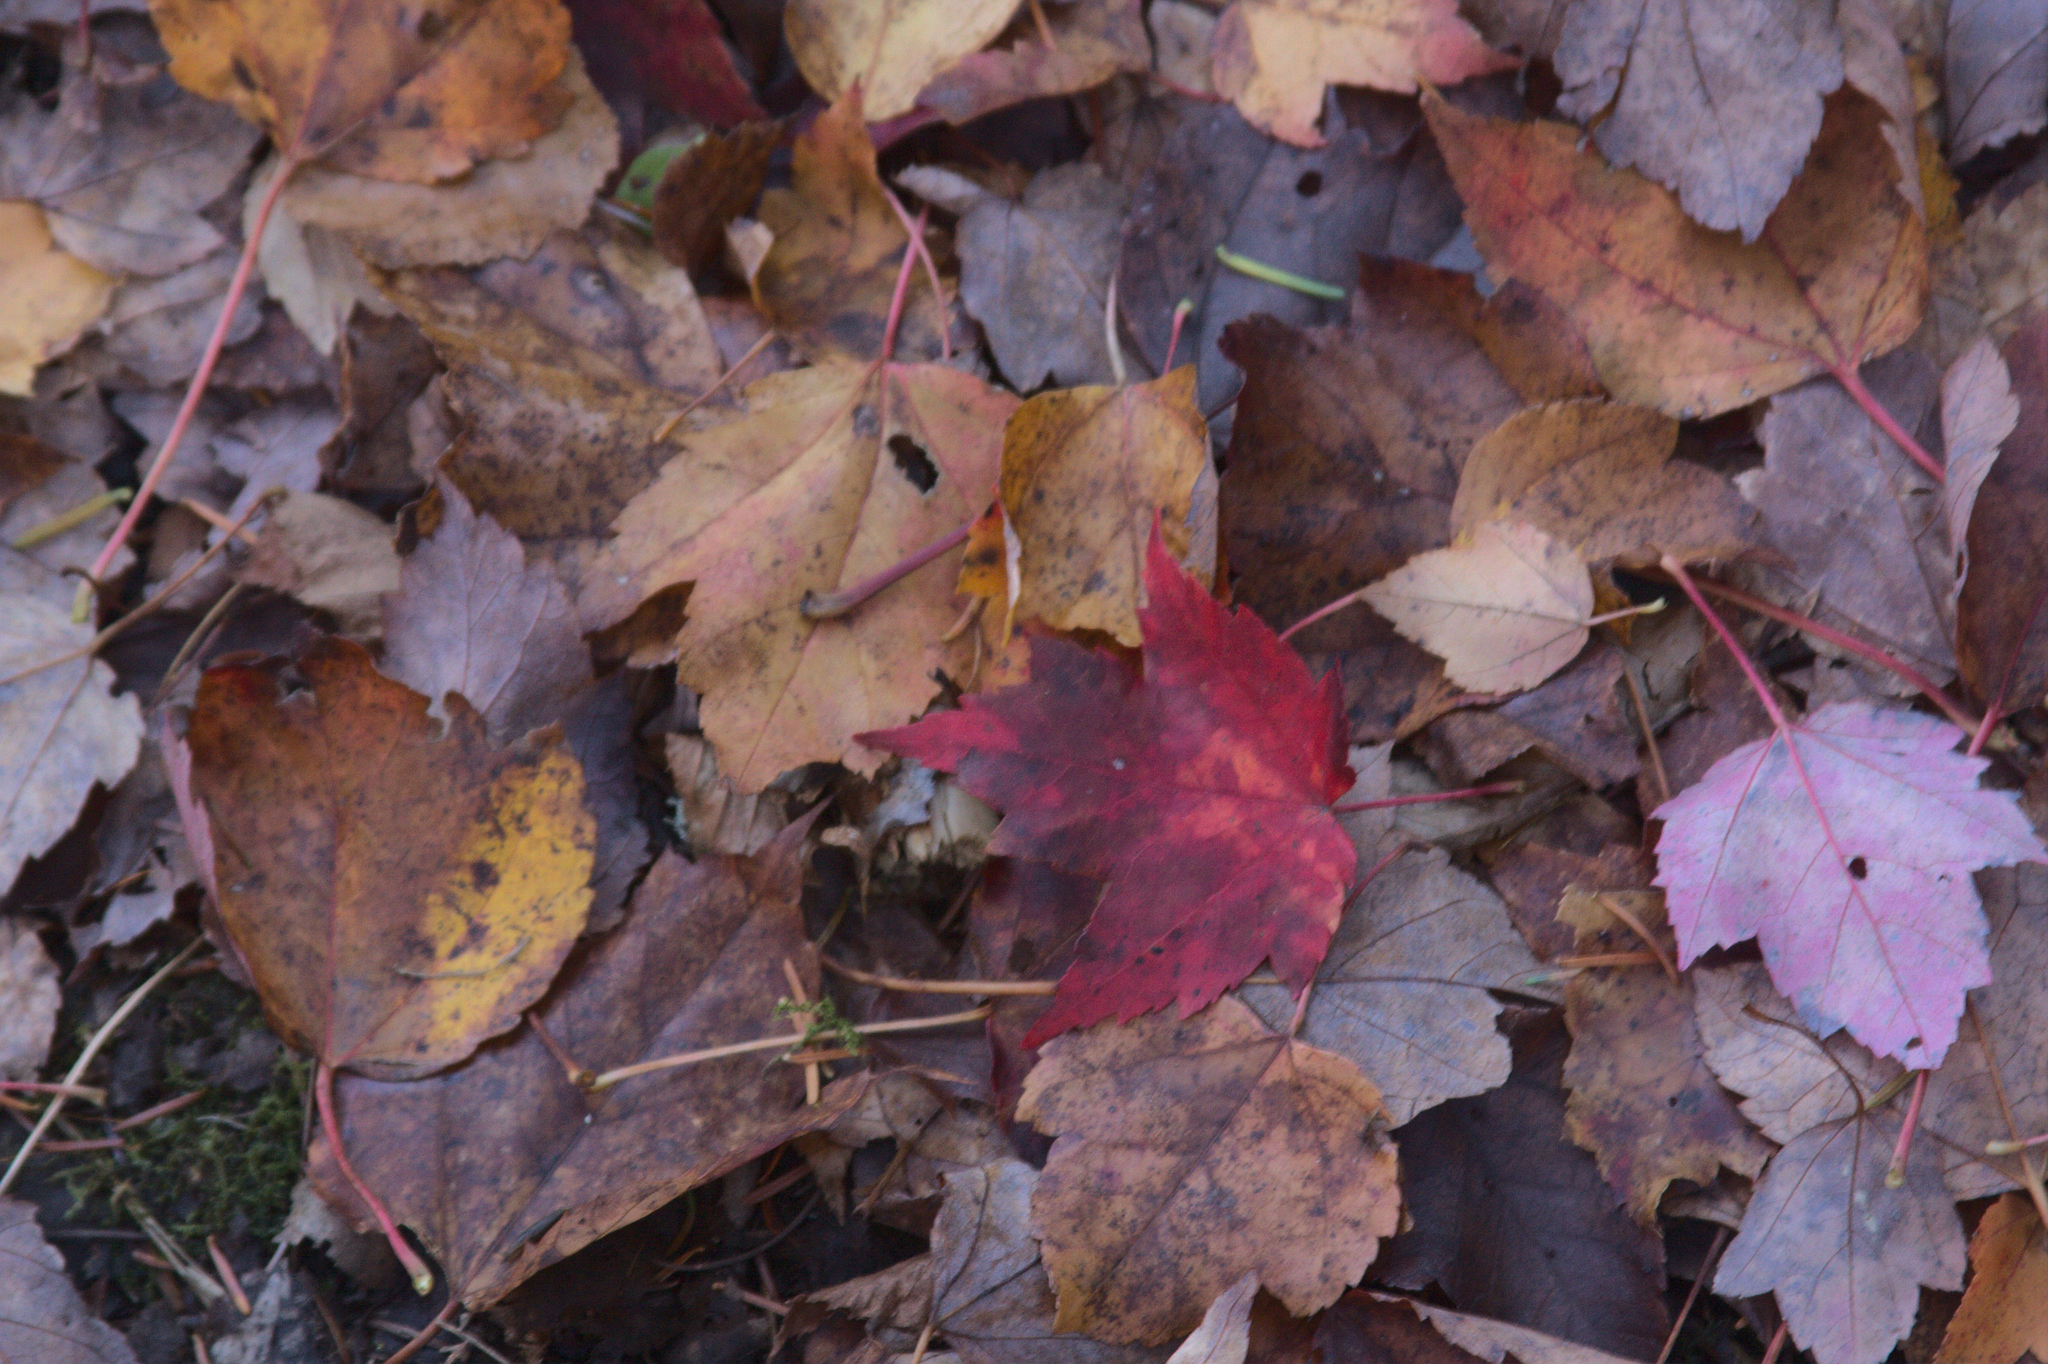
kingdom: Plantae
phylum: Tracheophyta
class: Magnoliopsida
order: Sapindales
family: Sapindaceae
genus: Acer
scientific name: Acer rubrum
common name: Red maple
